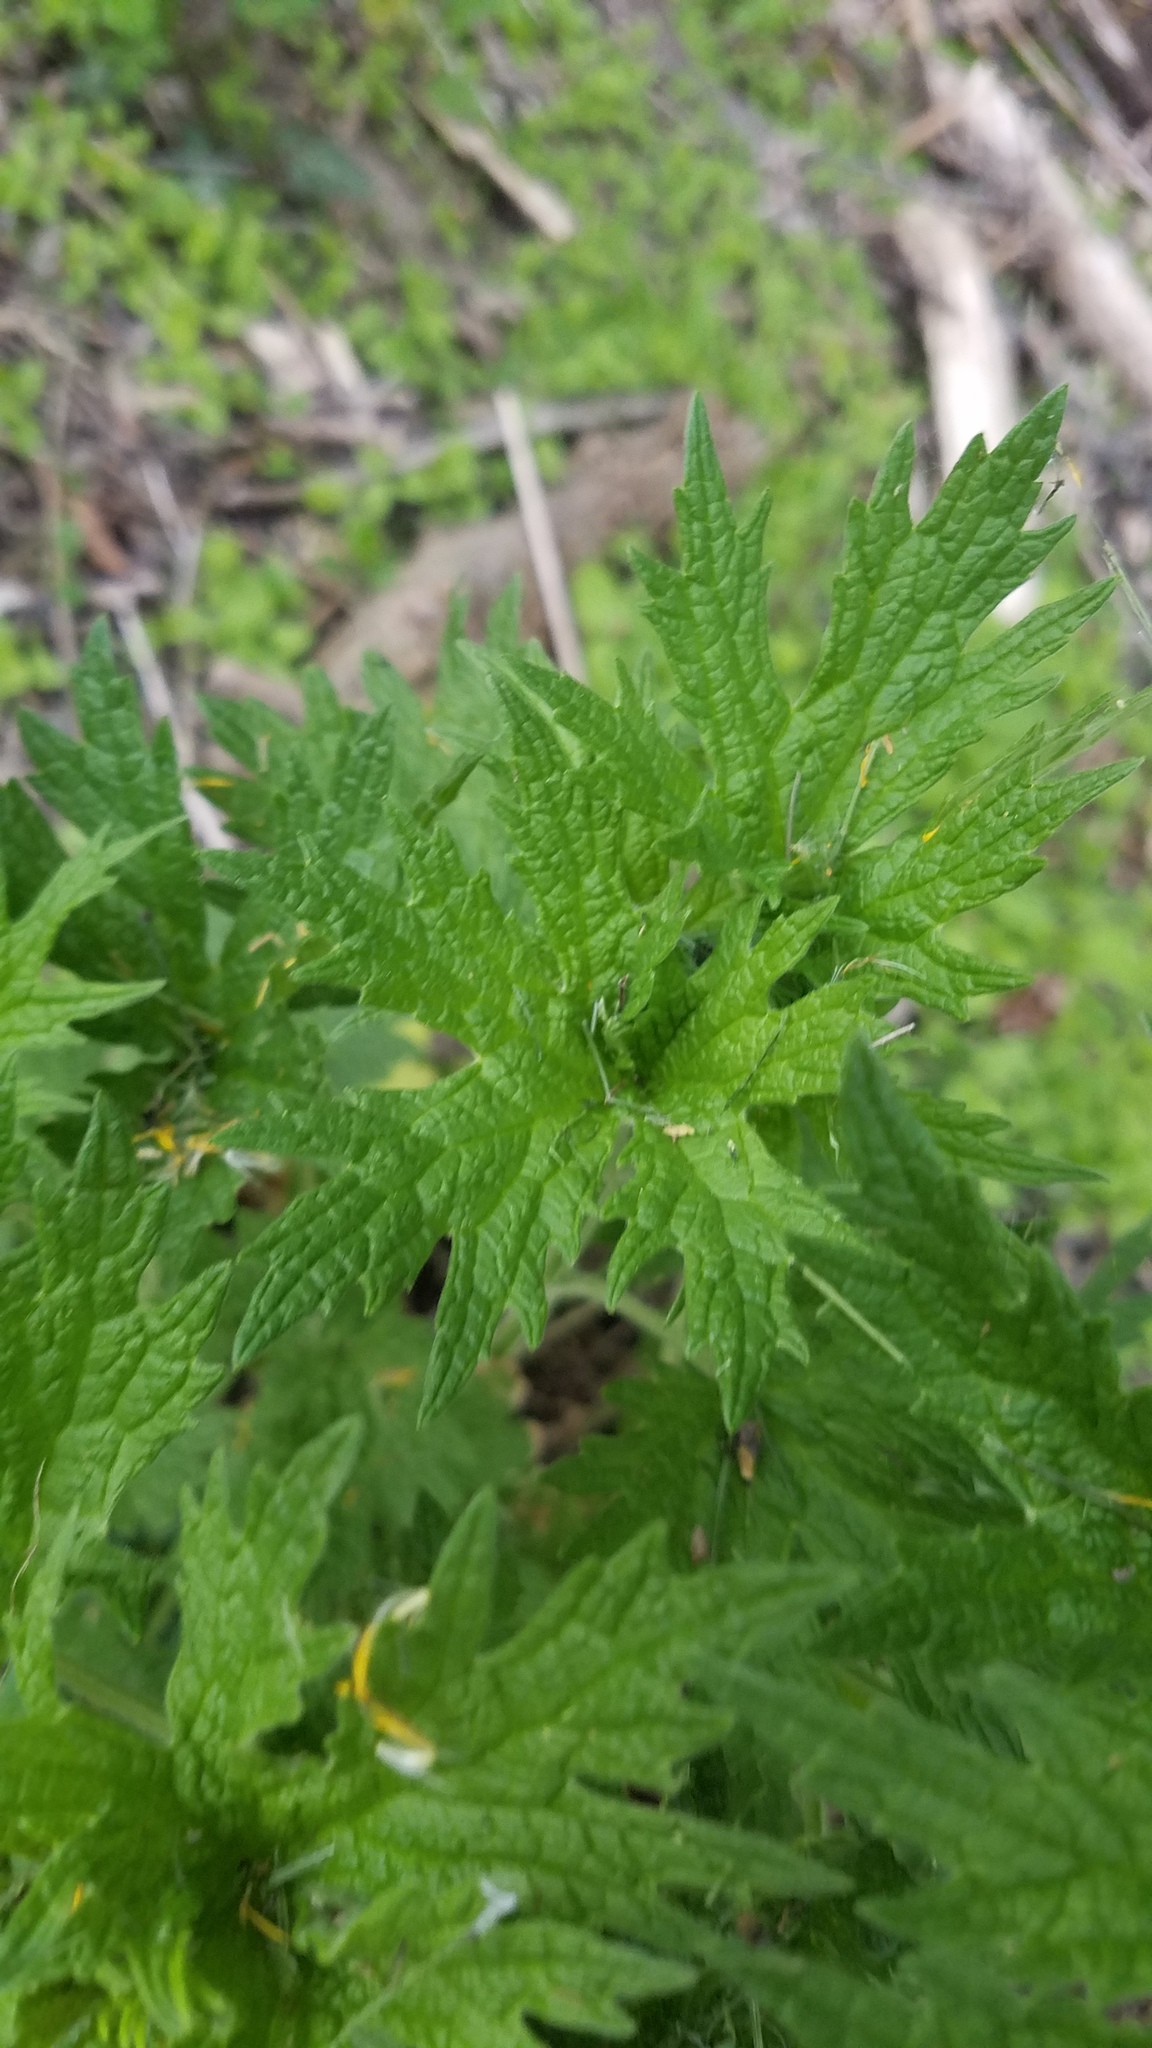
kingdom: Plantae
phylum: Tracheophyta
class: Magnoliopsida
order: Lamiales
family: Lamiaceae
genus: Leonurus
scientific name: Leonurus cardiaca
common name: Motherwort
